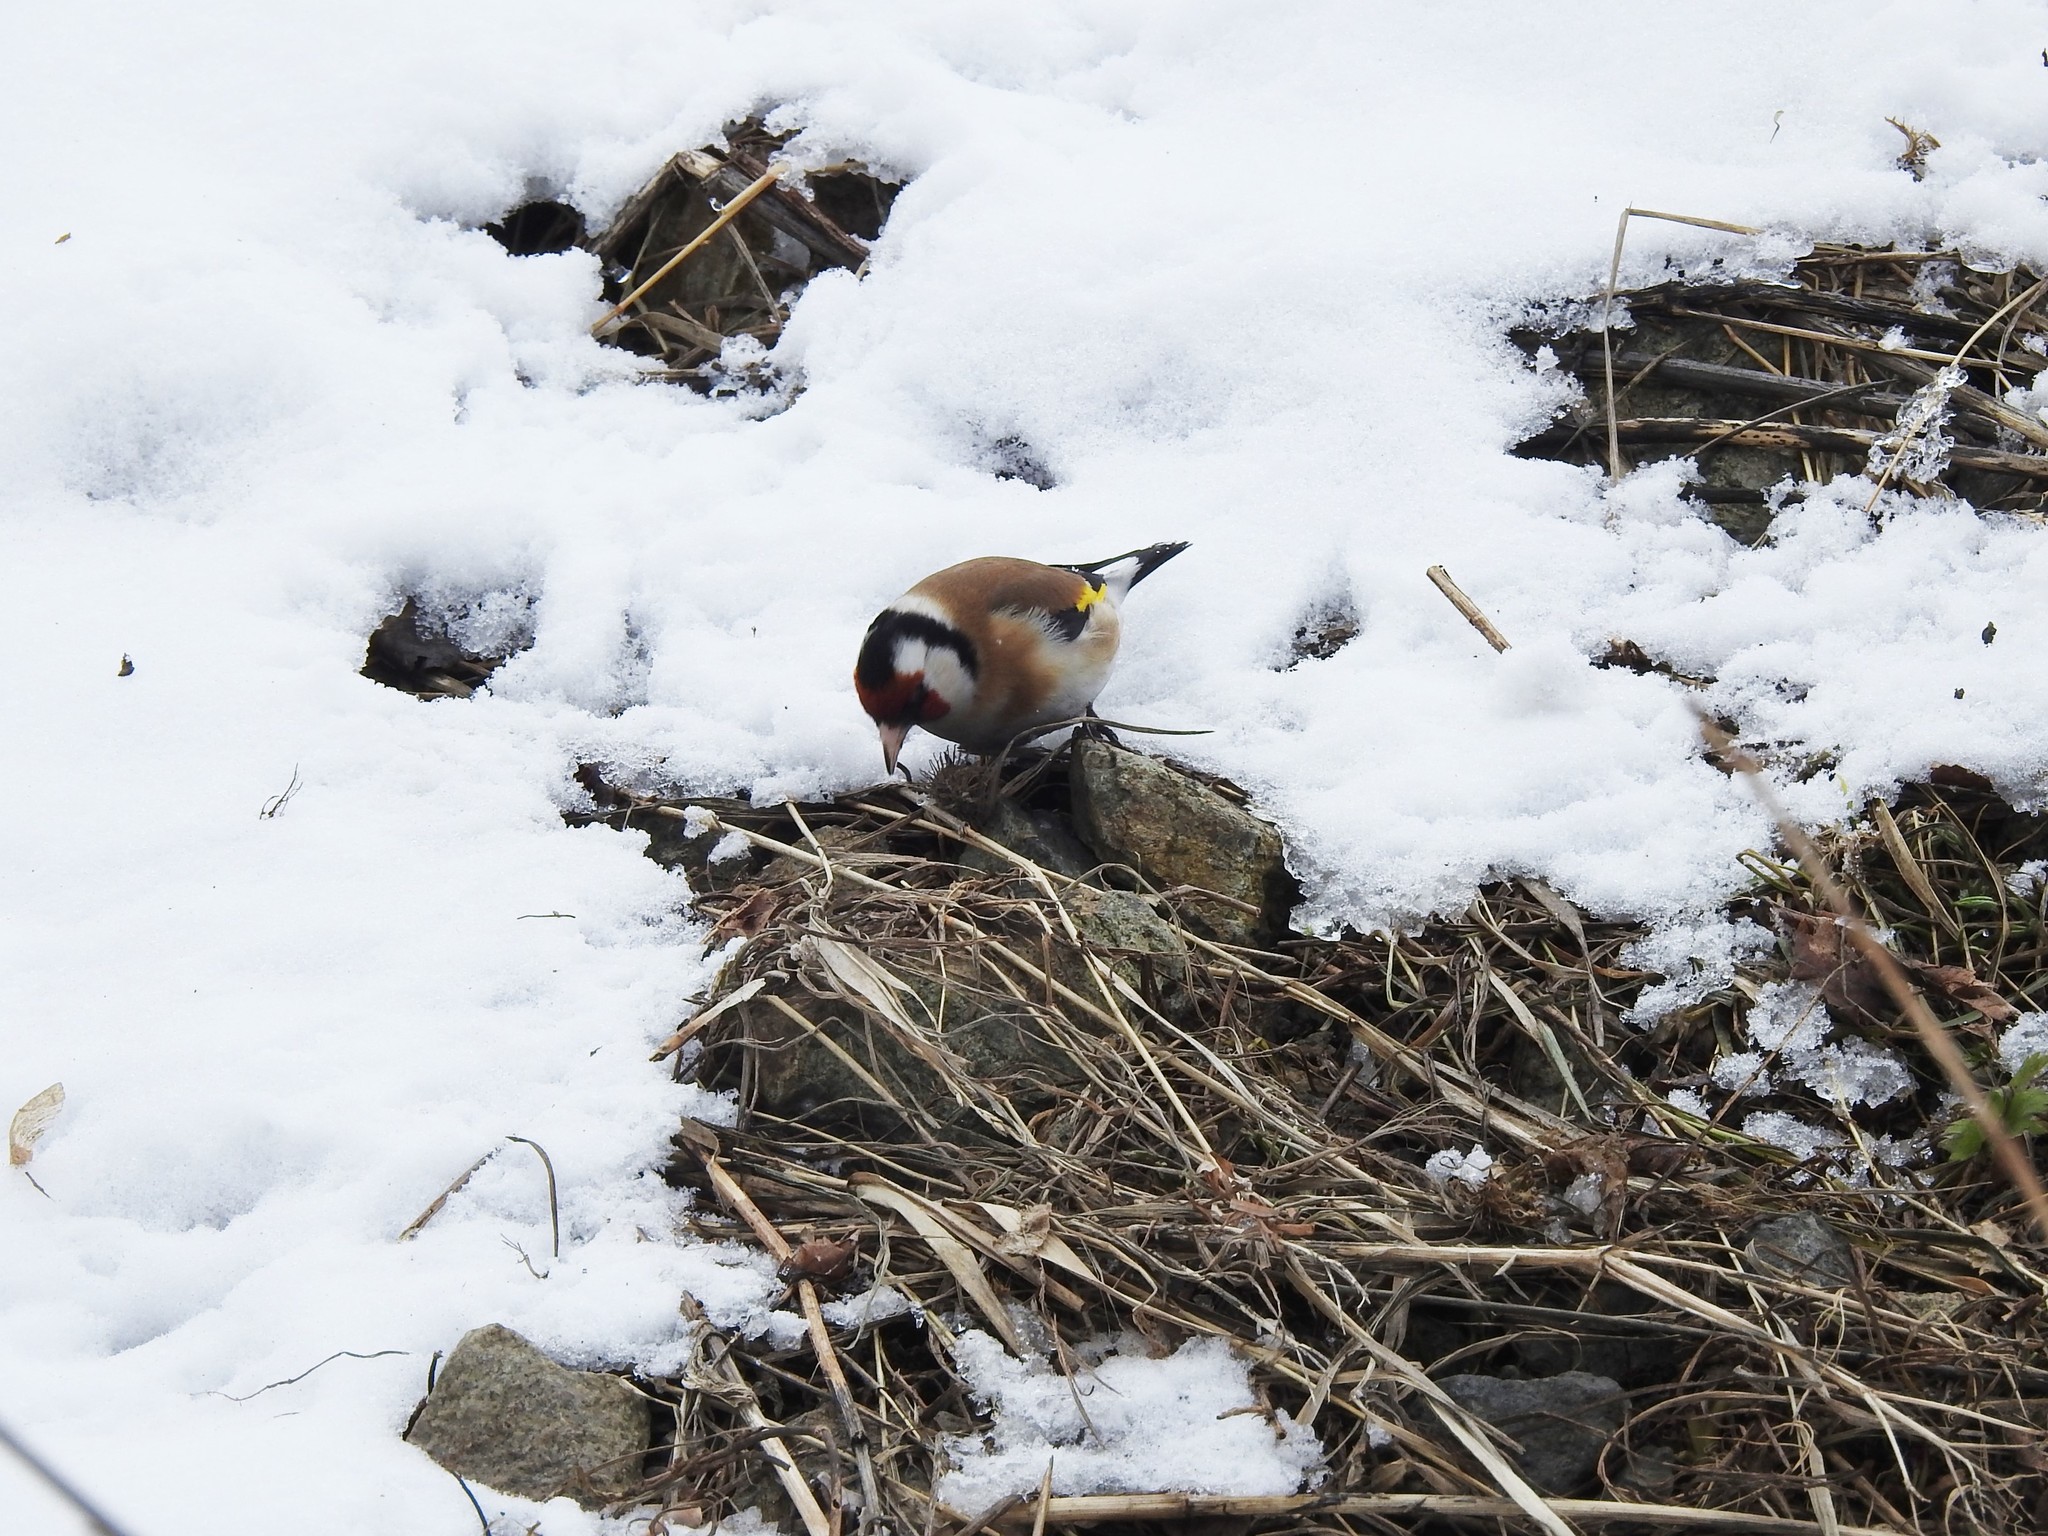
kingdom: Animalia
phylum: Chordata
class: Aves
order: Passeriformes
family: Fringillidae
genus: Carduelis
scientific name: Carduelis carduelis
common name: European goldfinch
